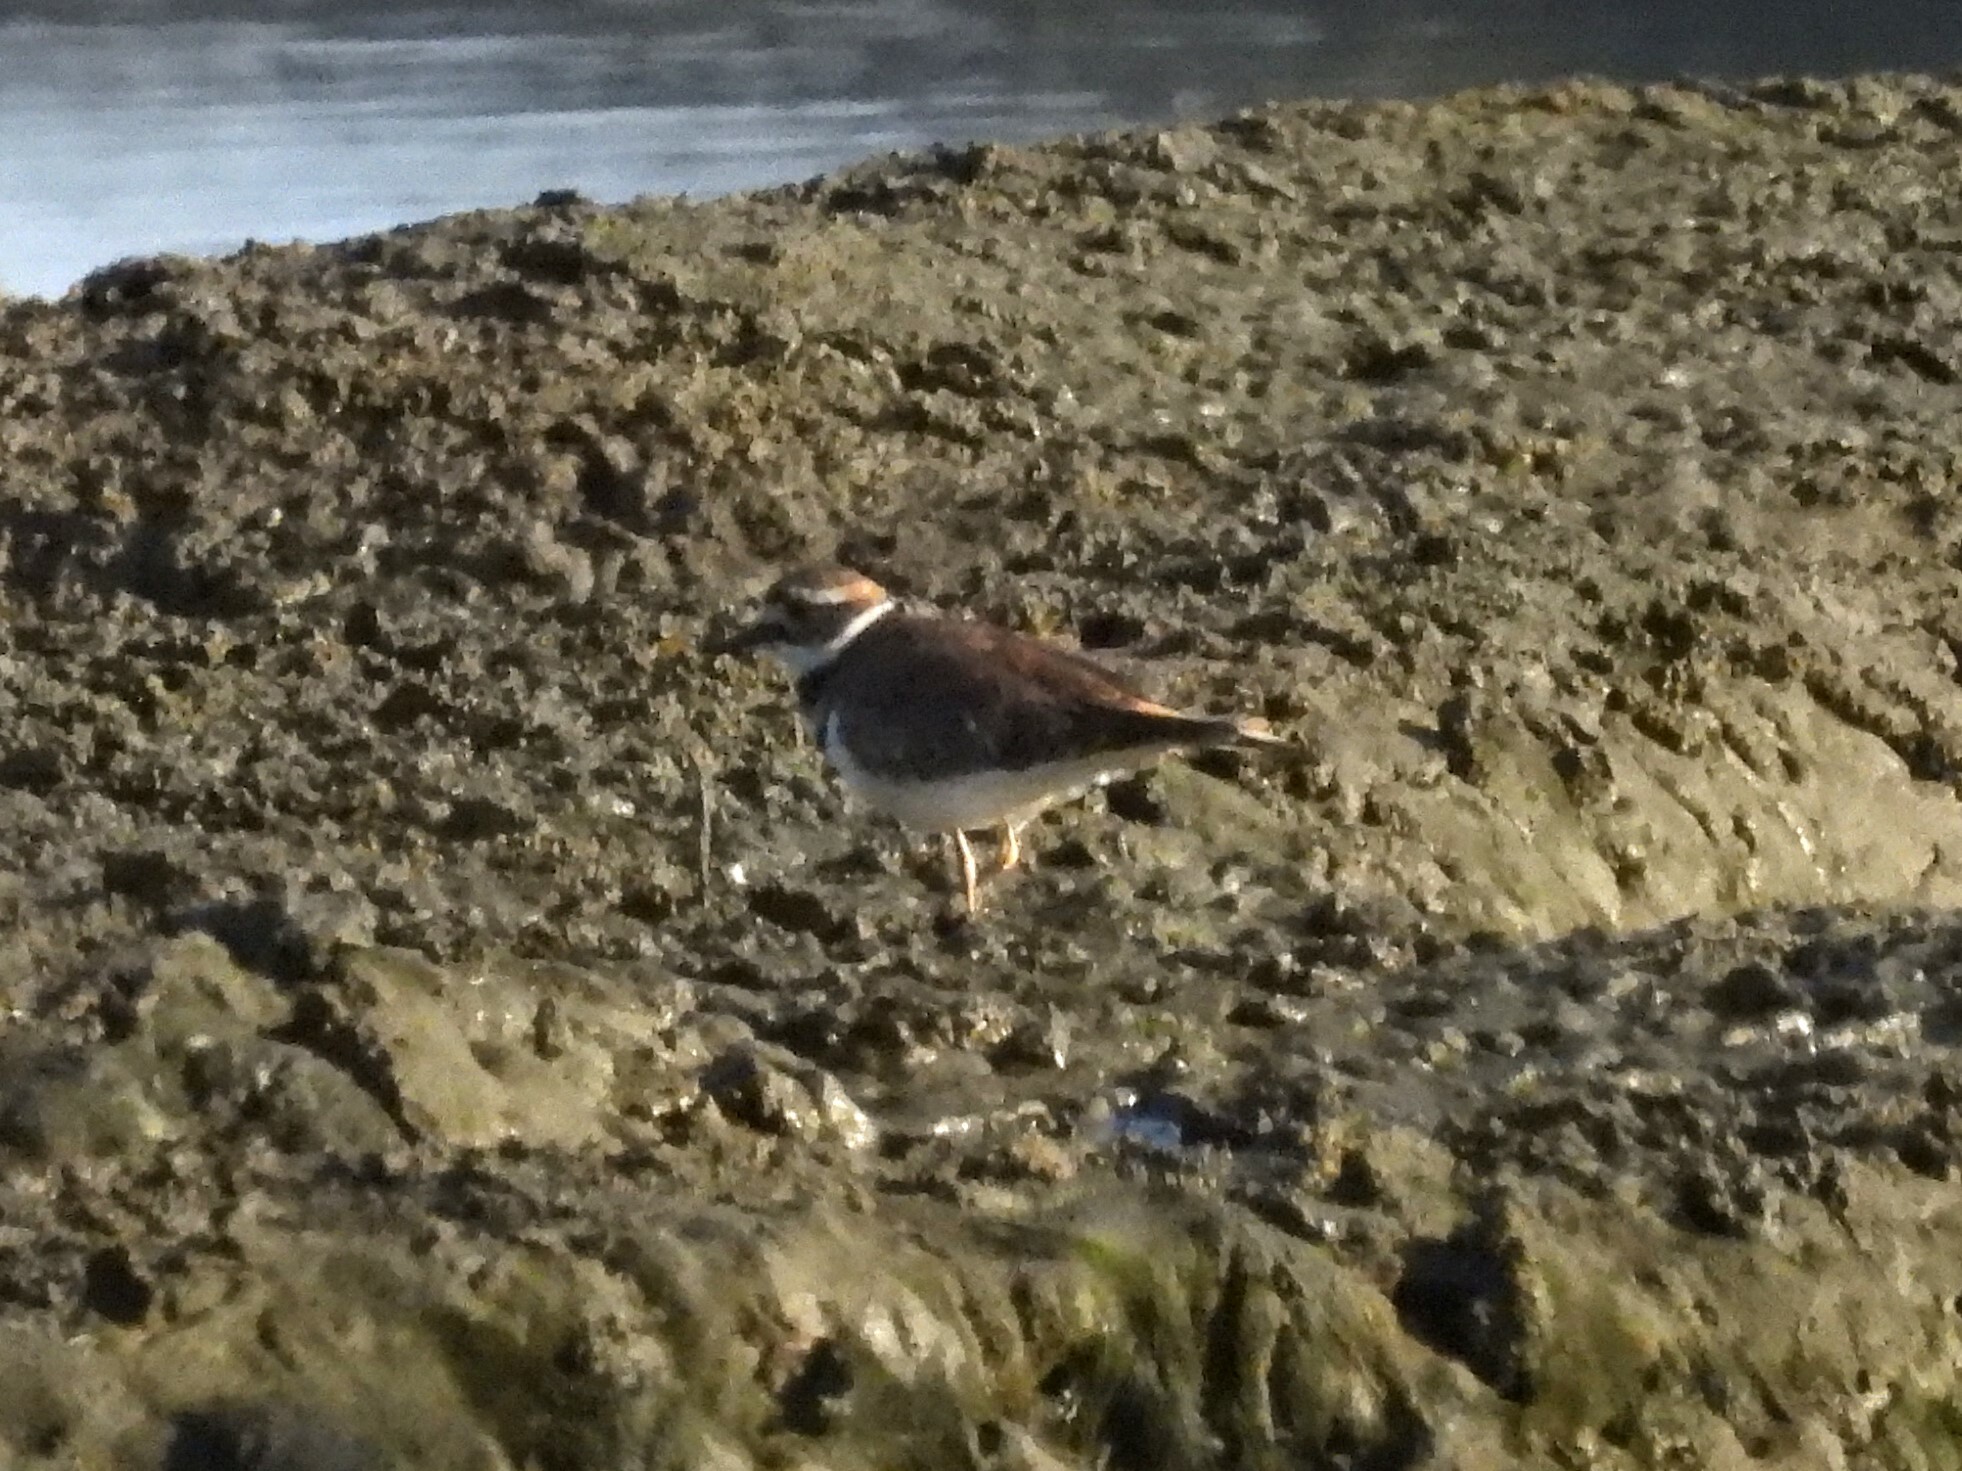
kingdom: Animalia
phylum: Chordata
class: Aves
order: Charadriiformes
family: Charadriidae
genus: Charadrius
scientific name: Charadrius vociferus
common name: Killdeer
